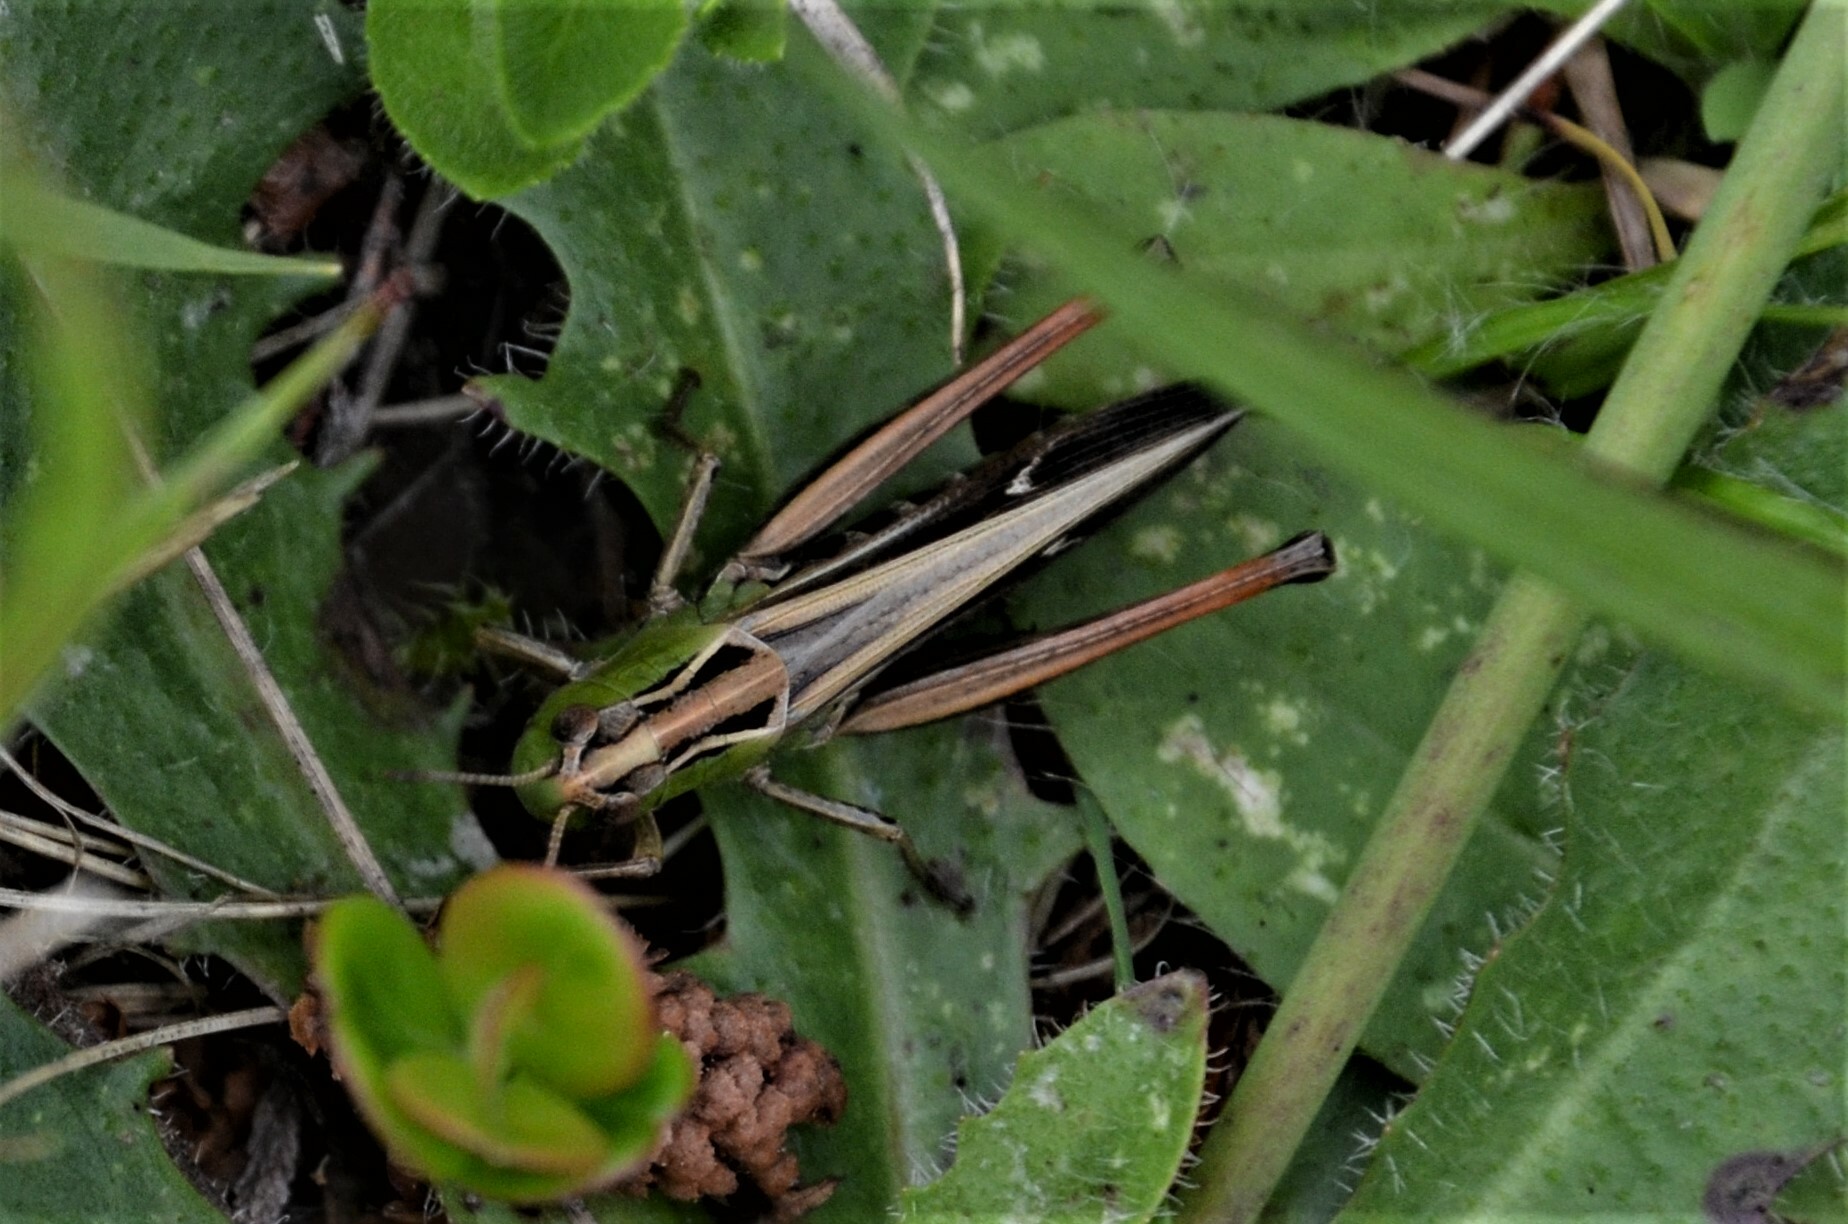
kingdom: Animalia
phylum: Arthropoda
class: Insecta
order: Orthoptera
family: Acrididae
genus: Stenobothrus
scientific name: Stenobothrus lineatus
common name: Stripe-winged grasshopper
